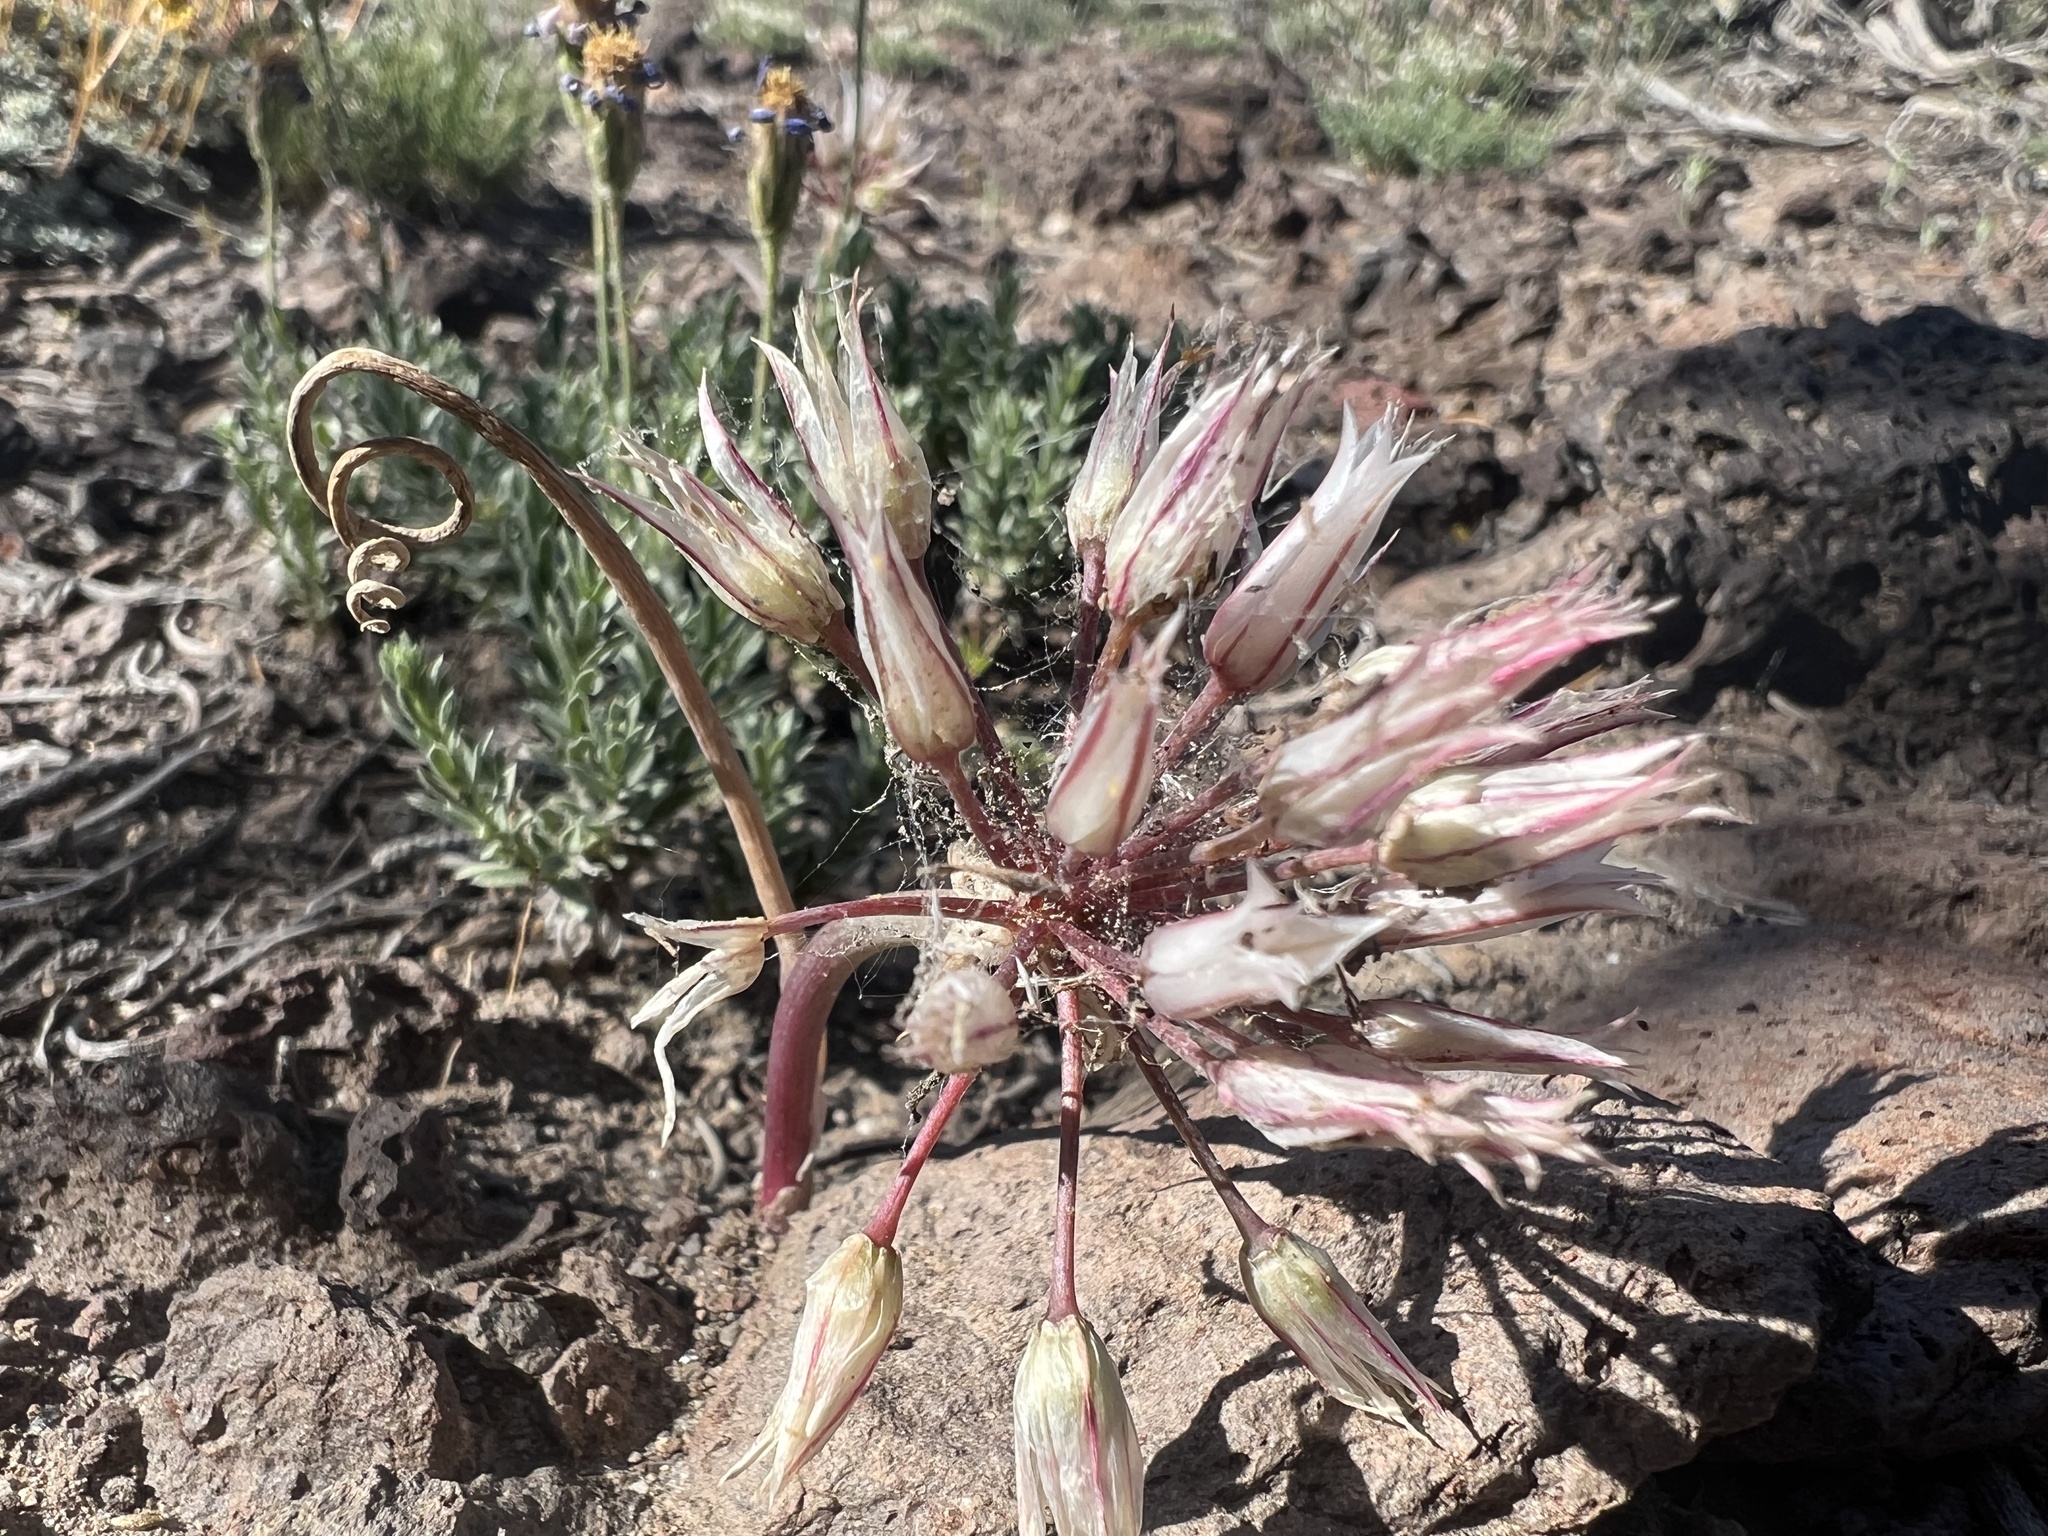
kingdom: Plantae
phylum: Tracheophyta
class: Liliopsida
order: Asparagales
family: Amaryllidaceae
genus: Allium
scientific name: Allium atrorubens
